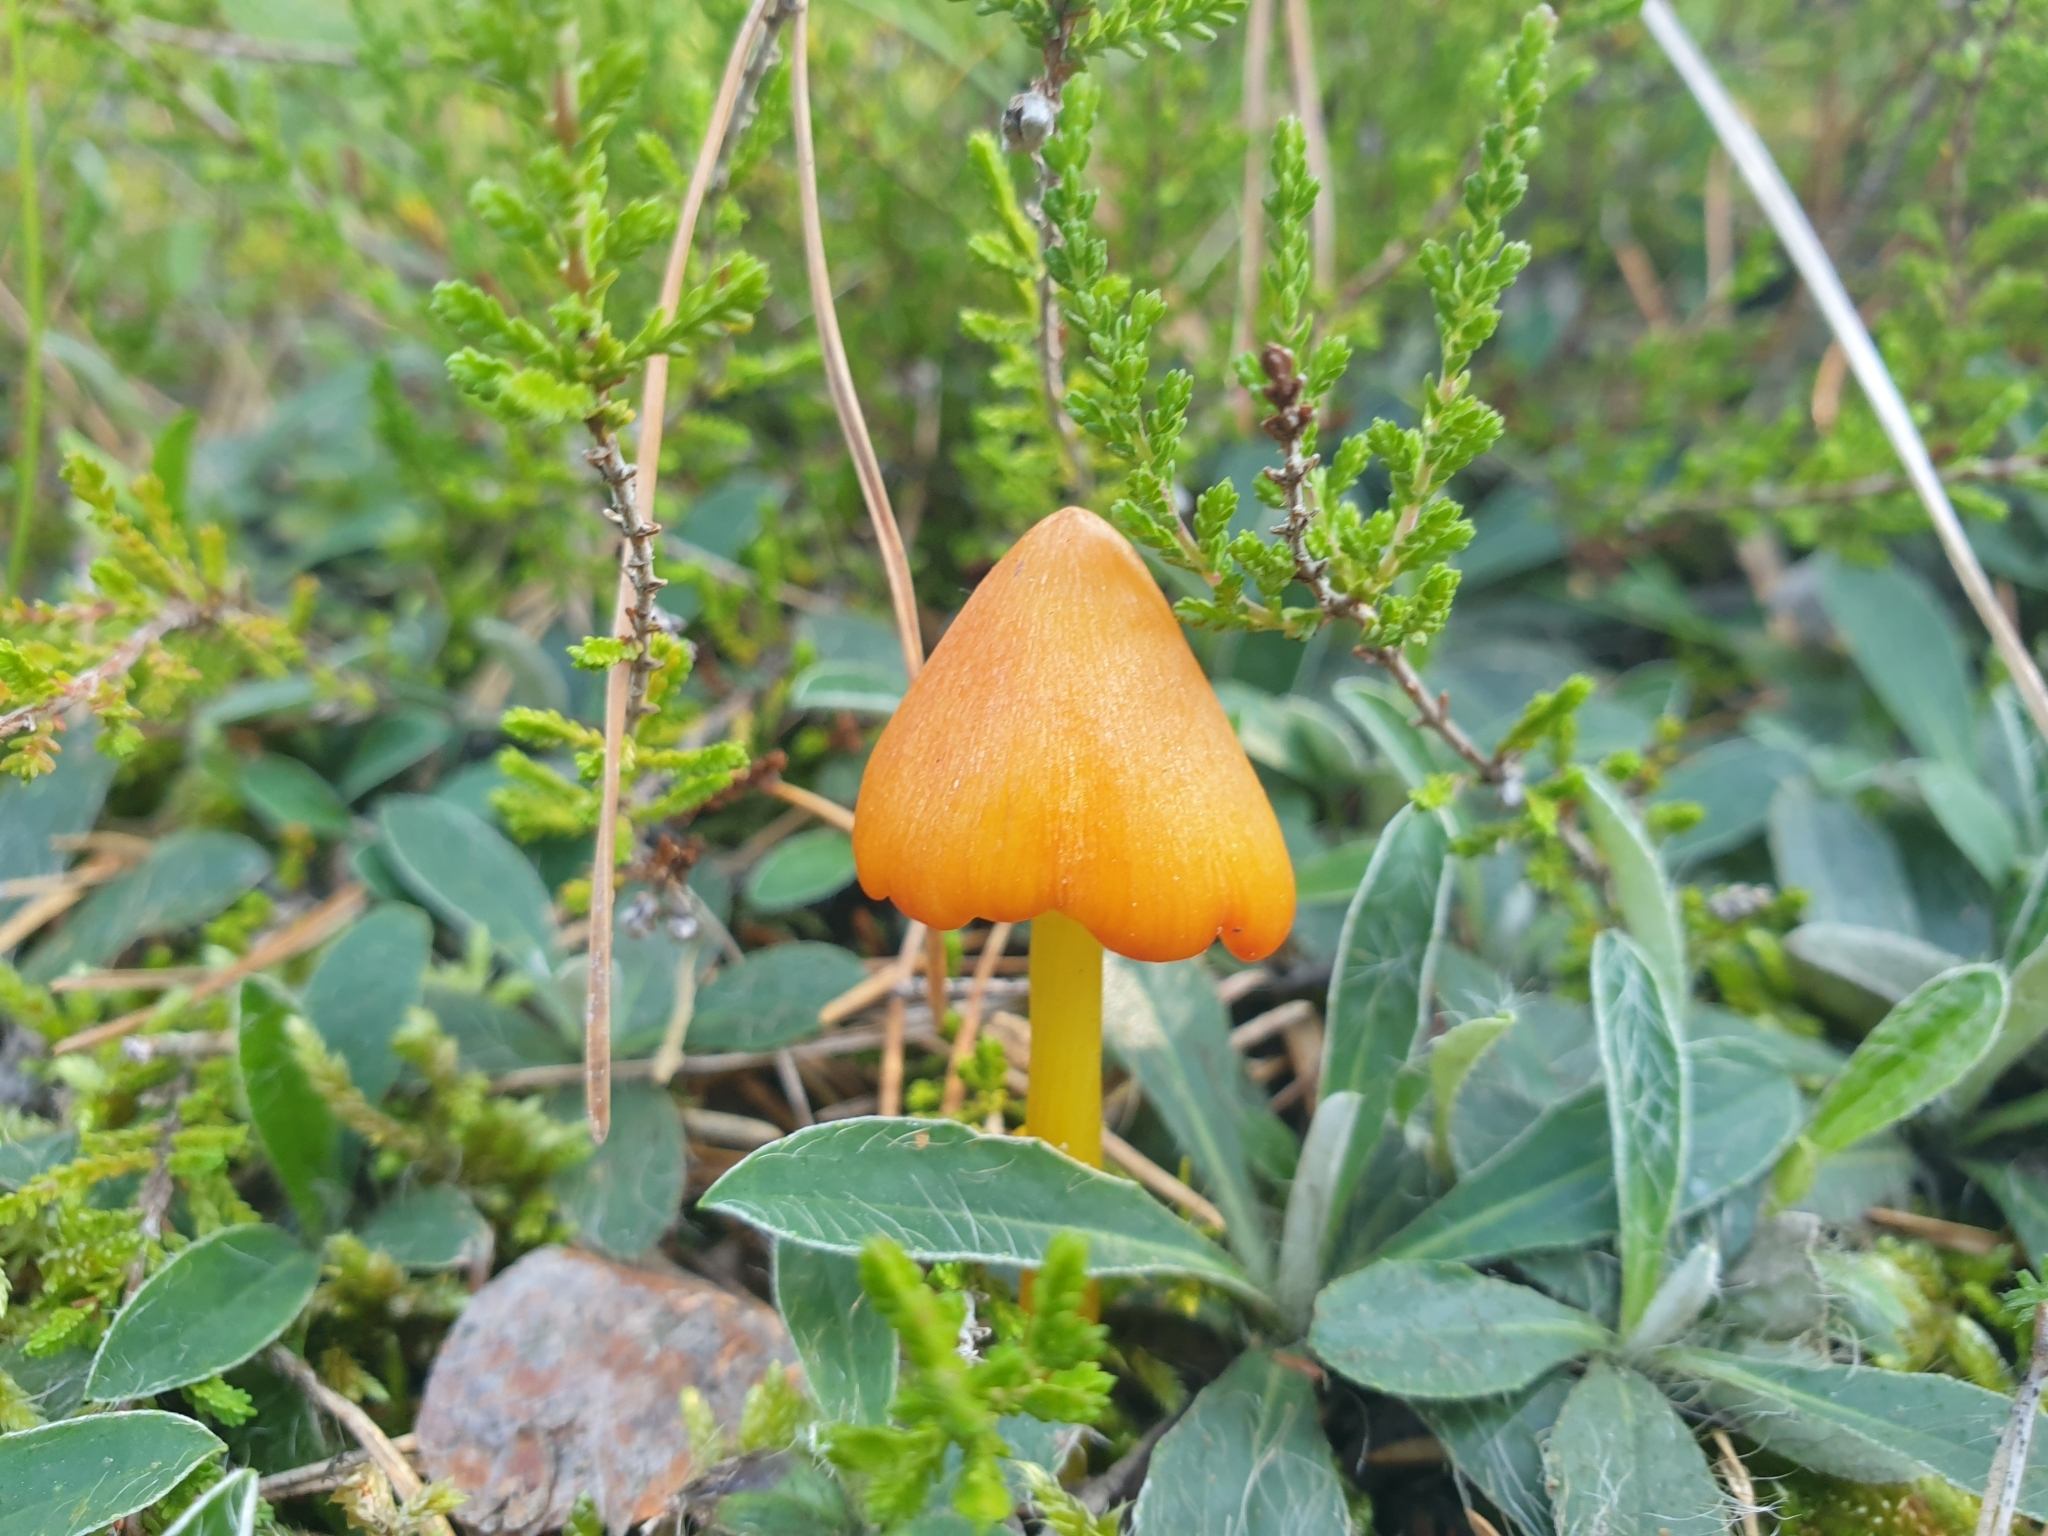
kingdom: Fungi
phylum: Basidiomycota
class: Agaricomycetes
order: Agaricales
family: Hygrophoraceae
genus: Hygrocybe
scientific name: Hygrocybe acutoconica
